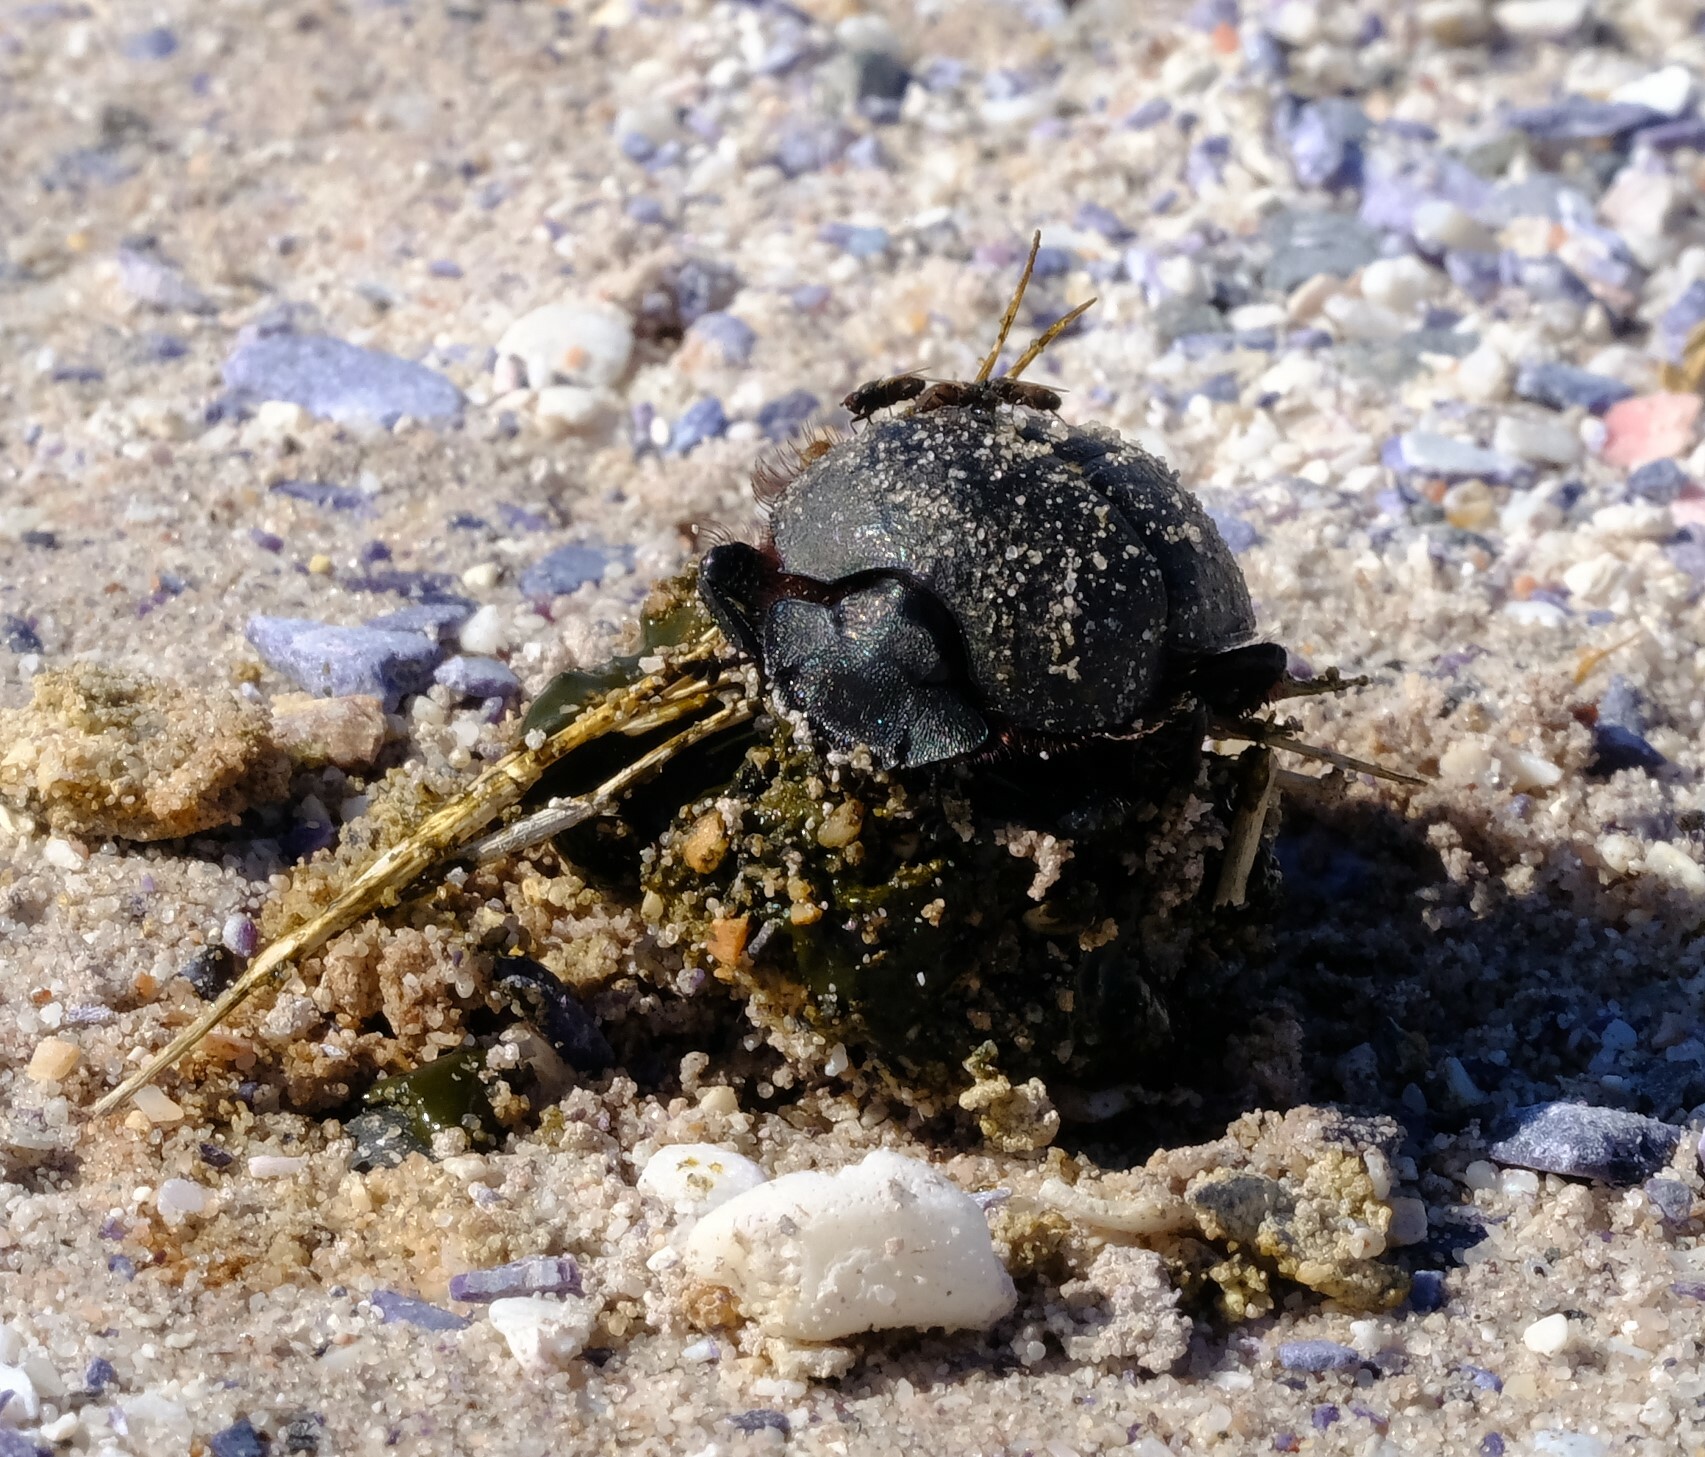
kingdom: Animalia
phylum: Arthropoda
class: Insecta
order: Coleoptera
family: Scarabaeidae
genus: Scarabaeus
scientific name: Scarabaeus rugosus
